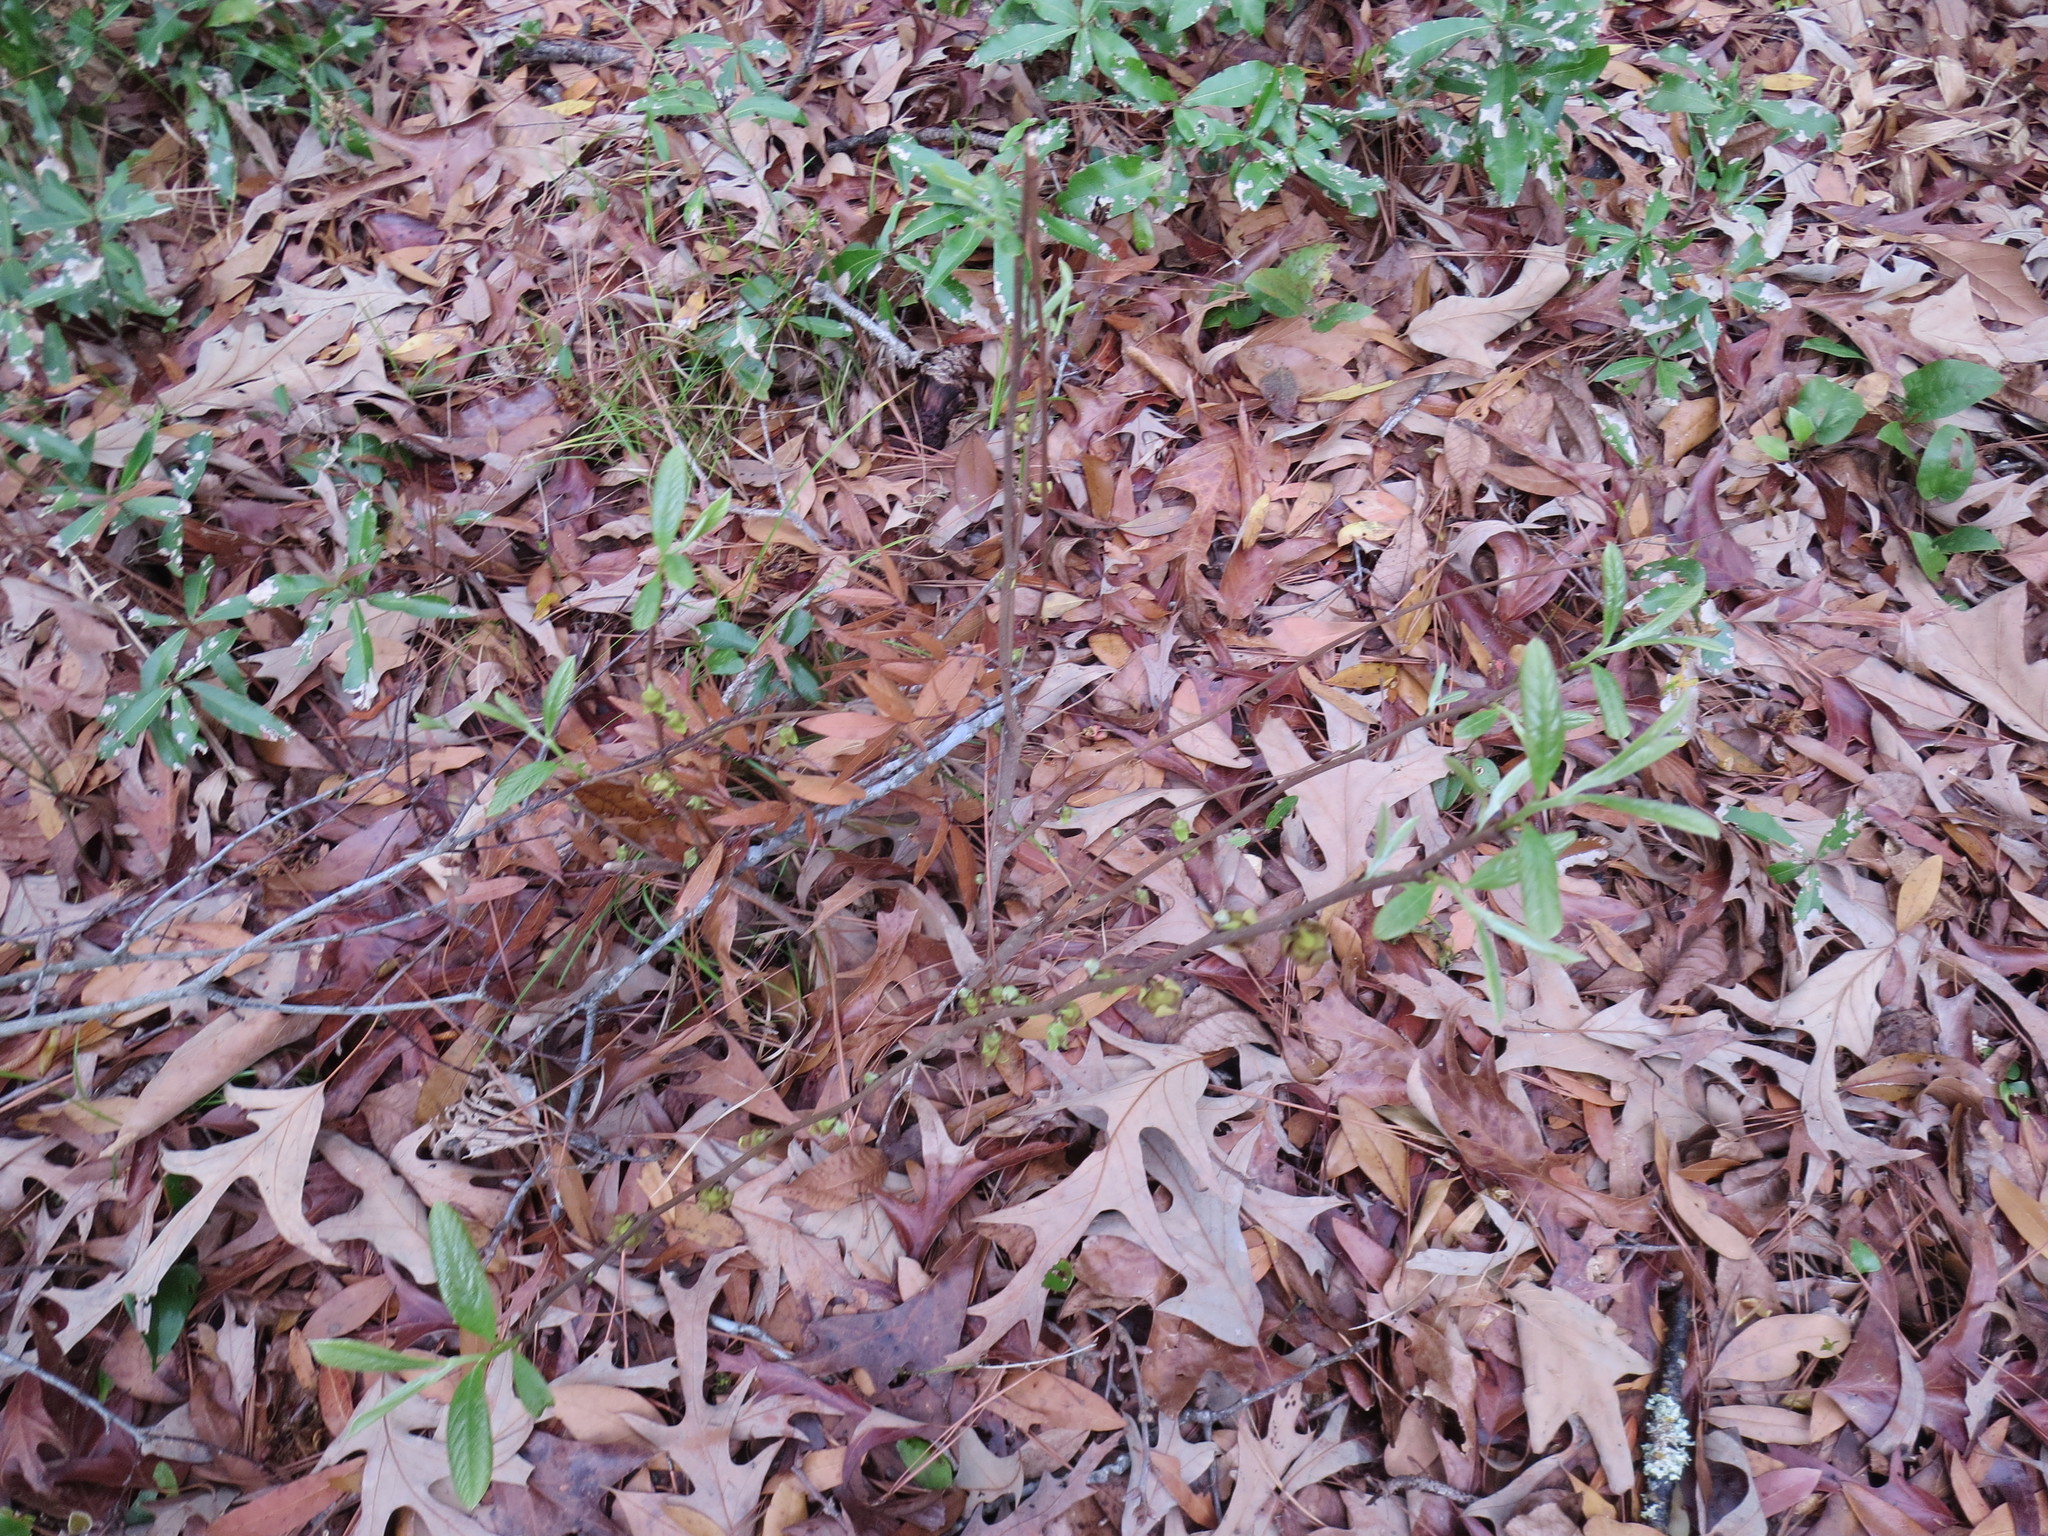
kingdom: Plantae
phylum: Tracheophyta
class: Magnoliopsida
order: Magnoliales
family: Annonaceae
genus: Asimina
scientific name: Asimina parviflora
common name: Dwarf pawpaw
